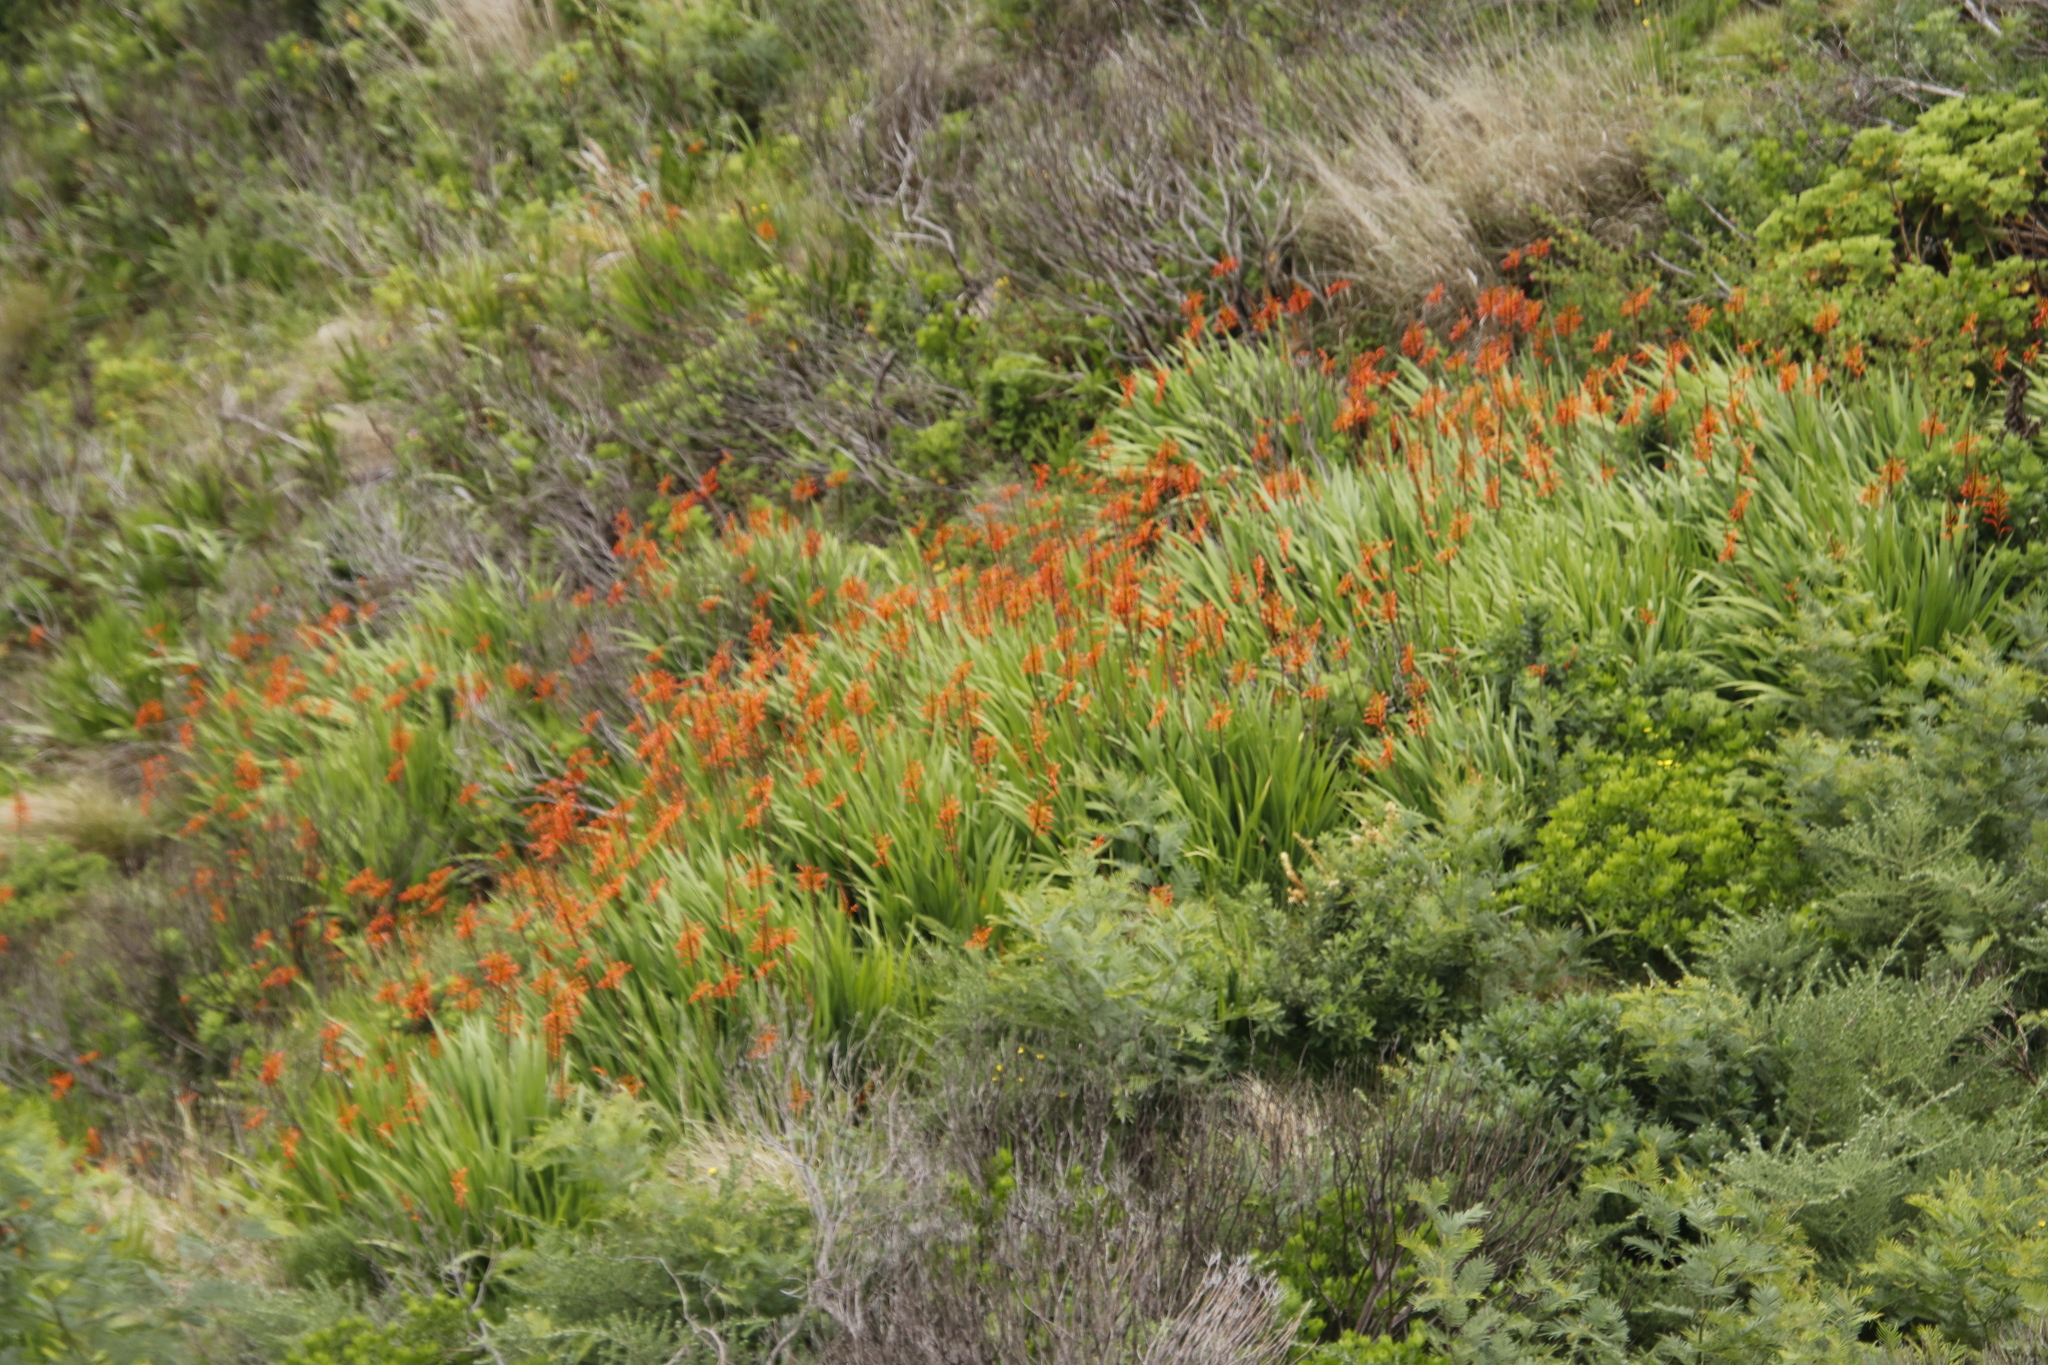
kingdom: Plantae
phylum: Tracheophyta
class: Liliopsida
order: Asparagales
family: Iridaceae
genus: Chasmanthe
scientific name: Chasmanthe floribunda
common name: African cornflag
